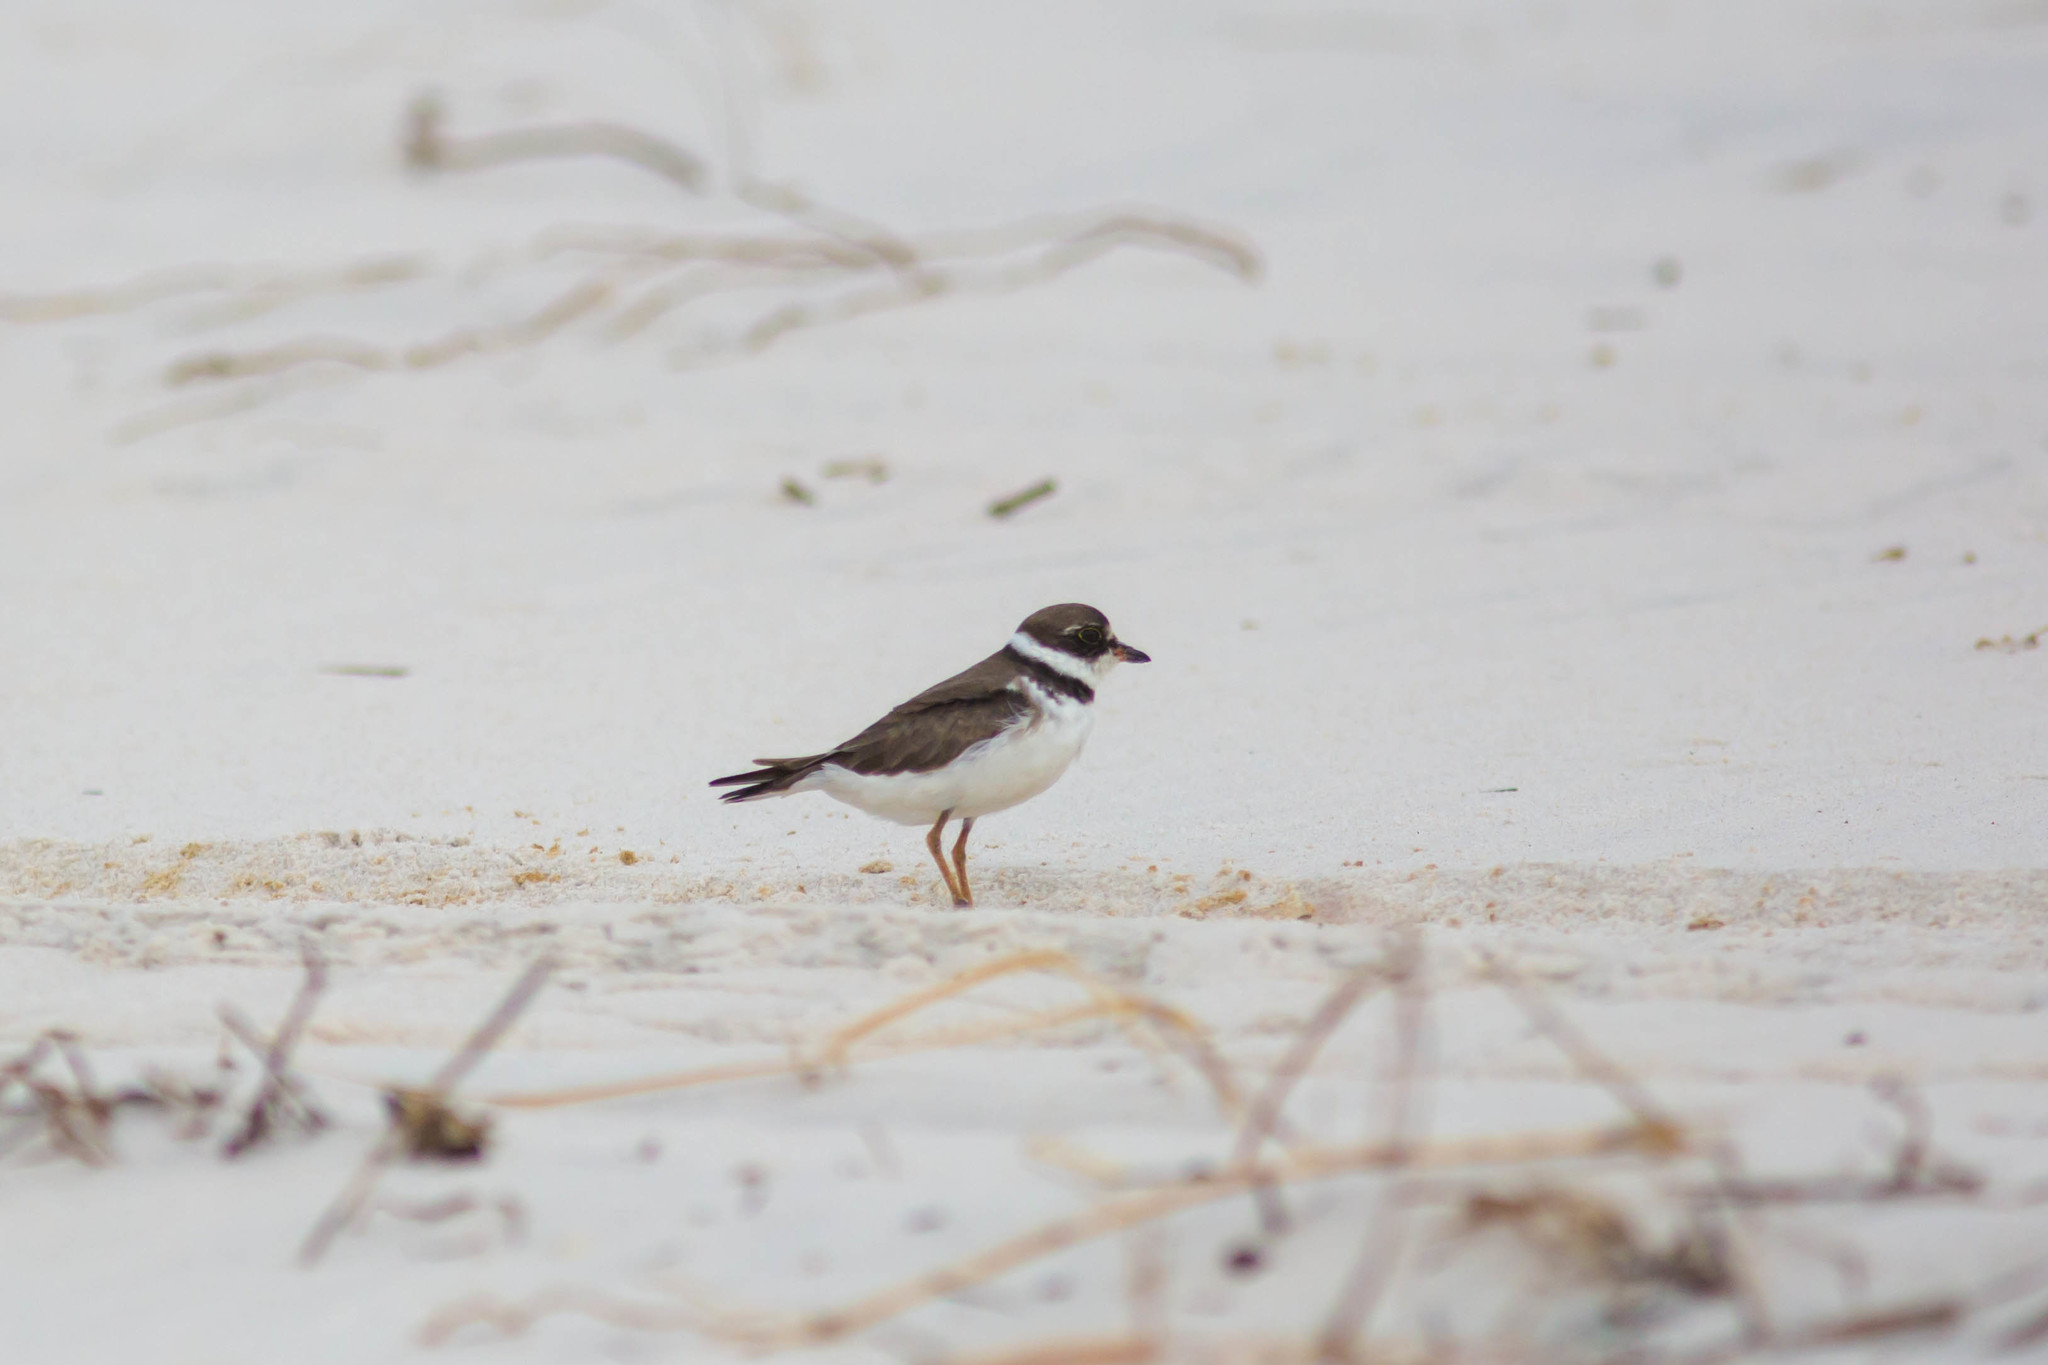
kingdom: Animalia
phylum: Chordata
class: Aves
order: Charadriiformes
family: Charadriidae
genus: Charadrius
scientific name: Charadrius semipalmatus
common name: Semipalmated plover
